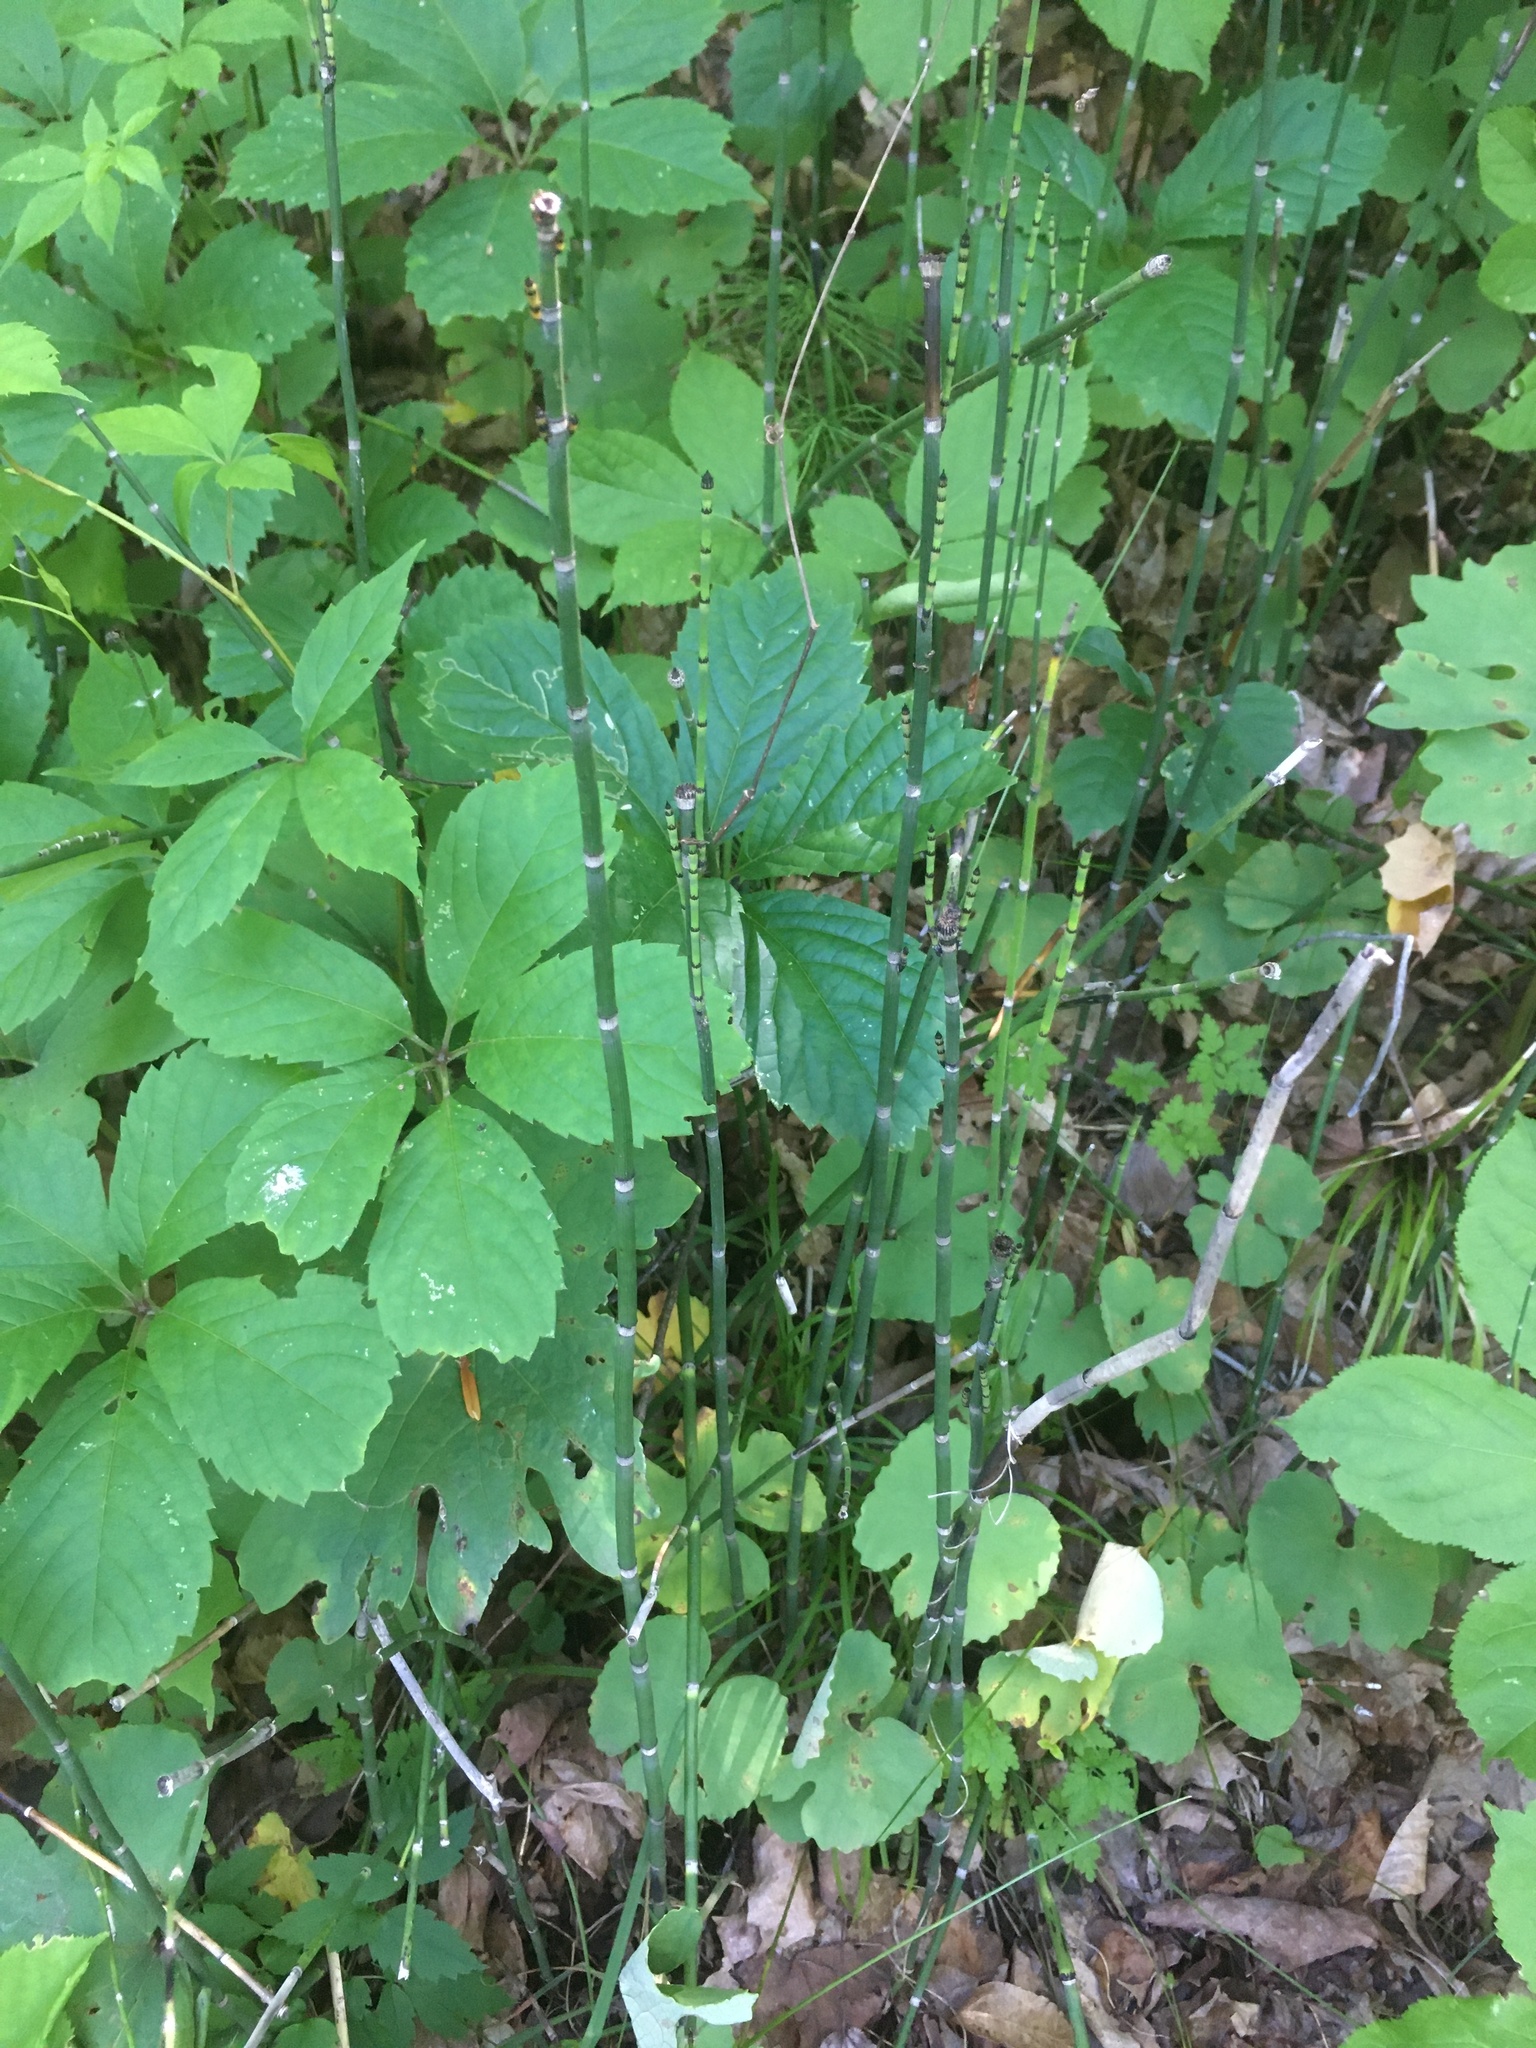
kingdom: Plantae
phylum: Tracheophyta
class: Polypodiopsida
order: Equisetales
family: Equisetaceae
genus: Equisetum
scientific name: Equisetum praealtum
